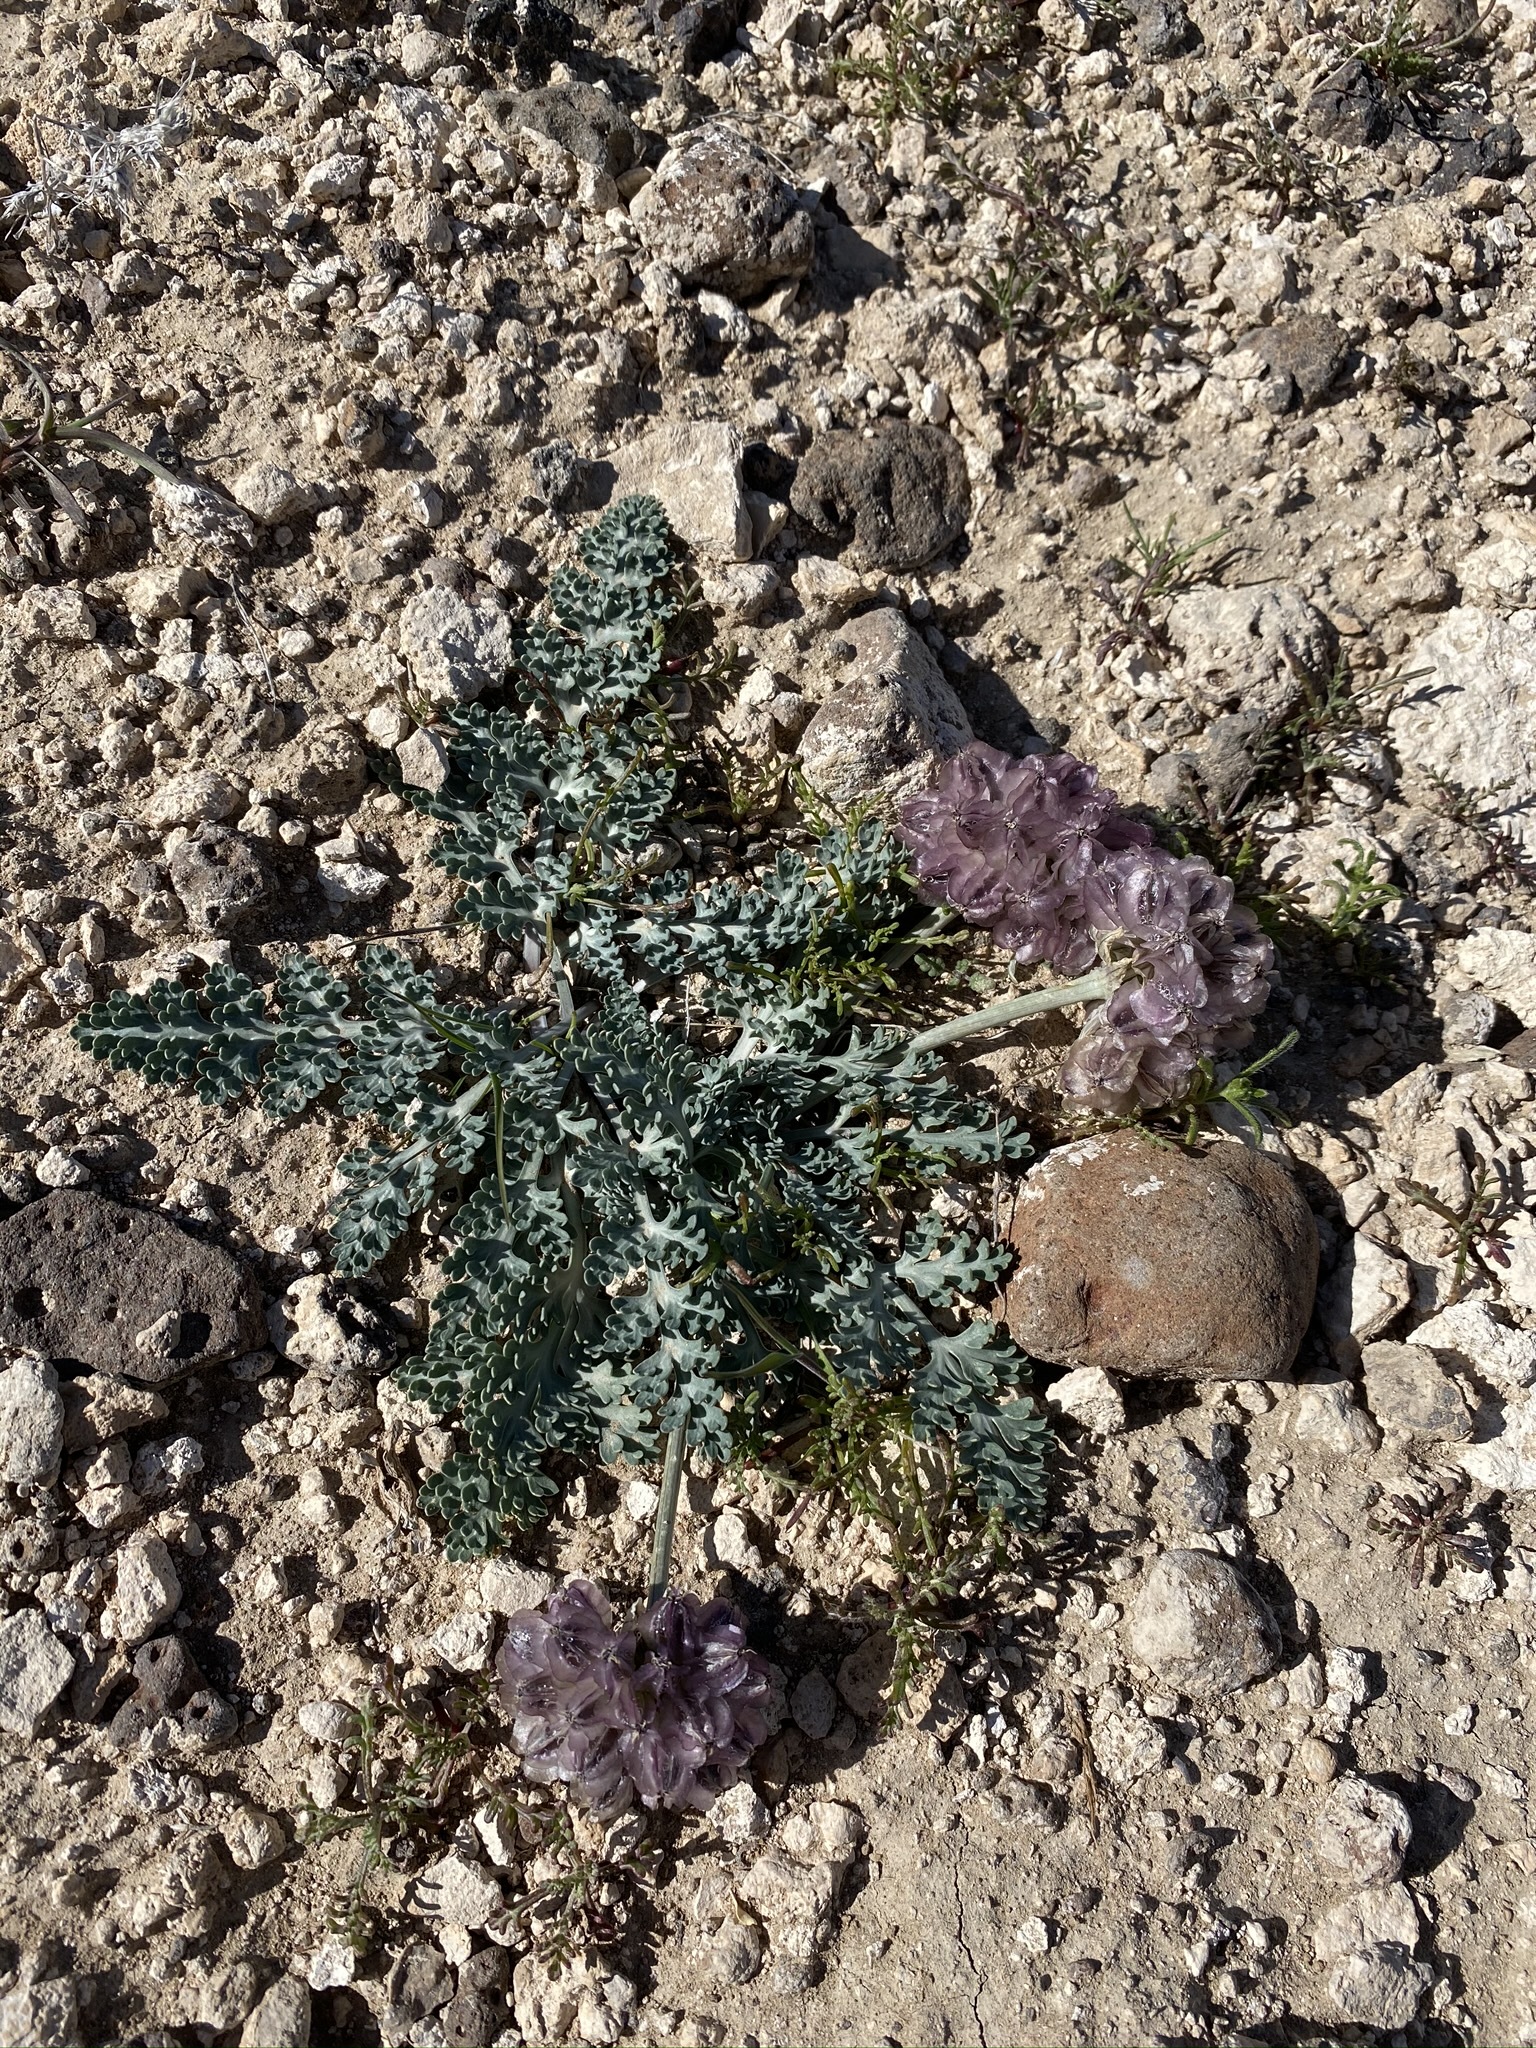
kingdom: Plantae
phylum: Tracheophyta
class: Magnoliopsida
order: Apiales
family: Apiaceae
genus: Vesper
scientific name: Vesper purpurascens
